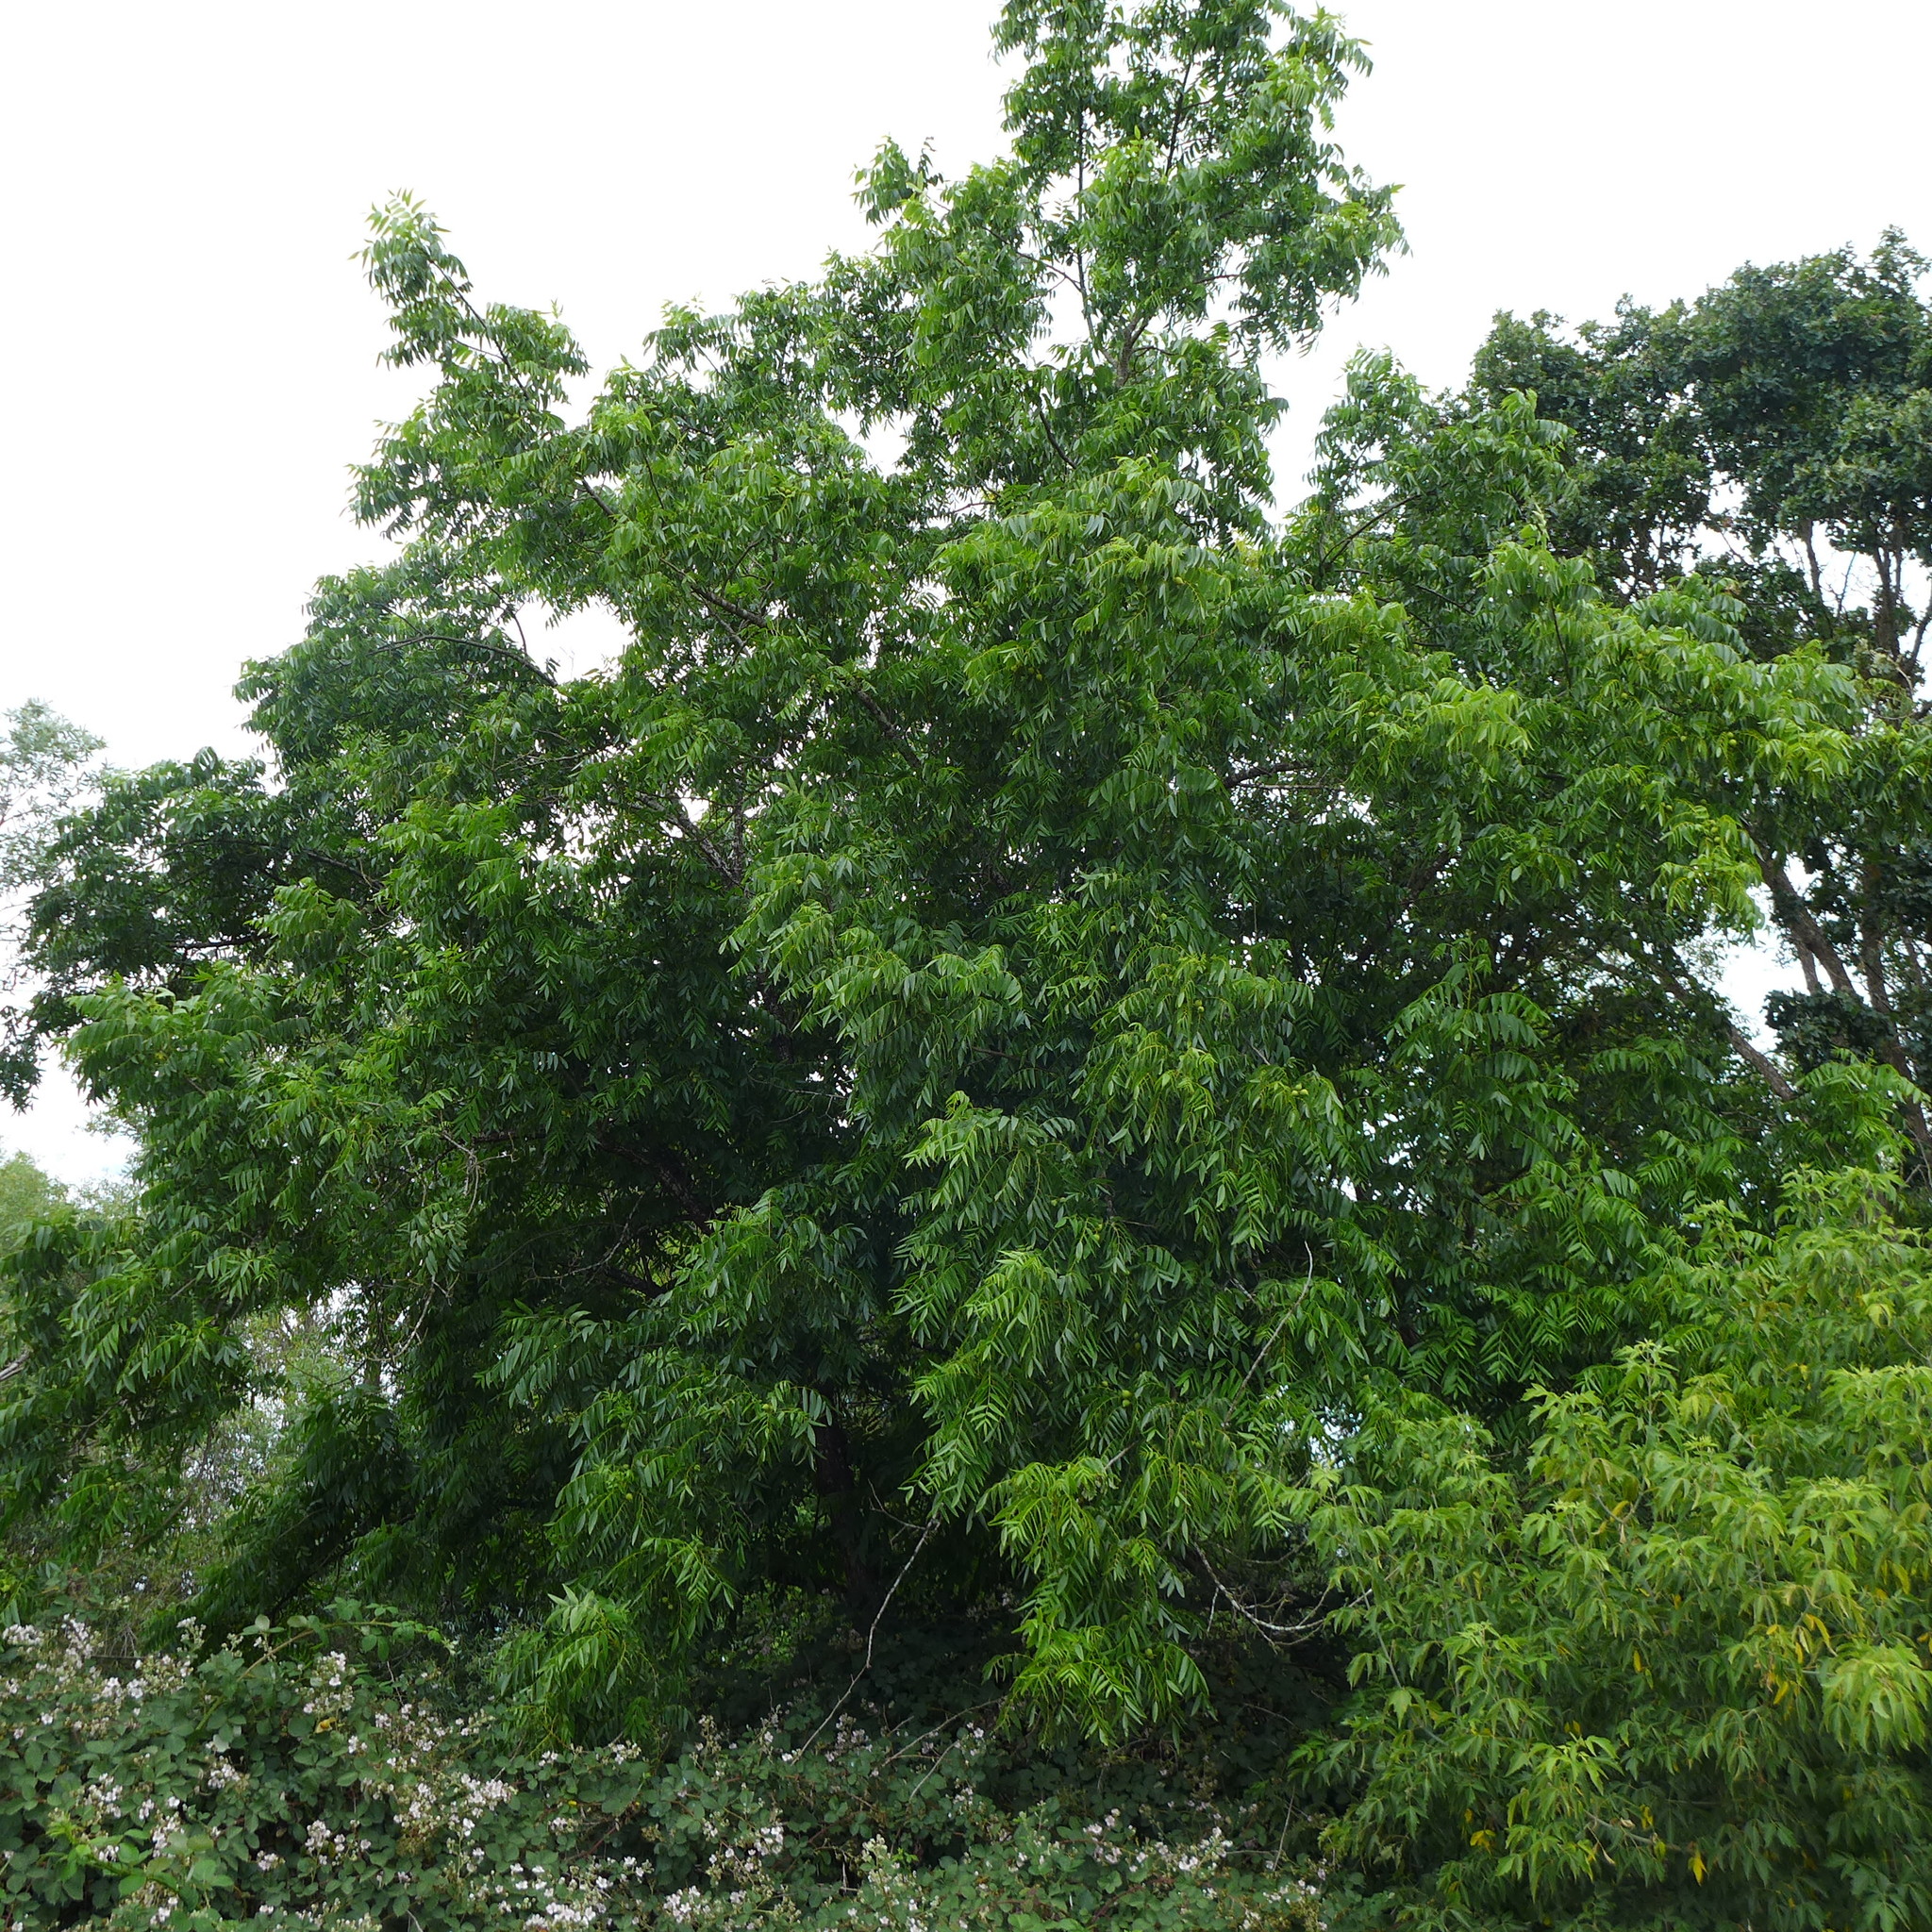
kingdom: Plantae
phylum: Tracheophyta
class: Magnoliopsida
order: Fagales
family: Juglandaceae
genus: Juglans
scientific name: Juglans hindsii
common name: Northern california black walnut
